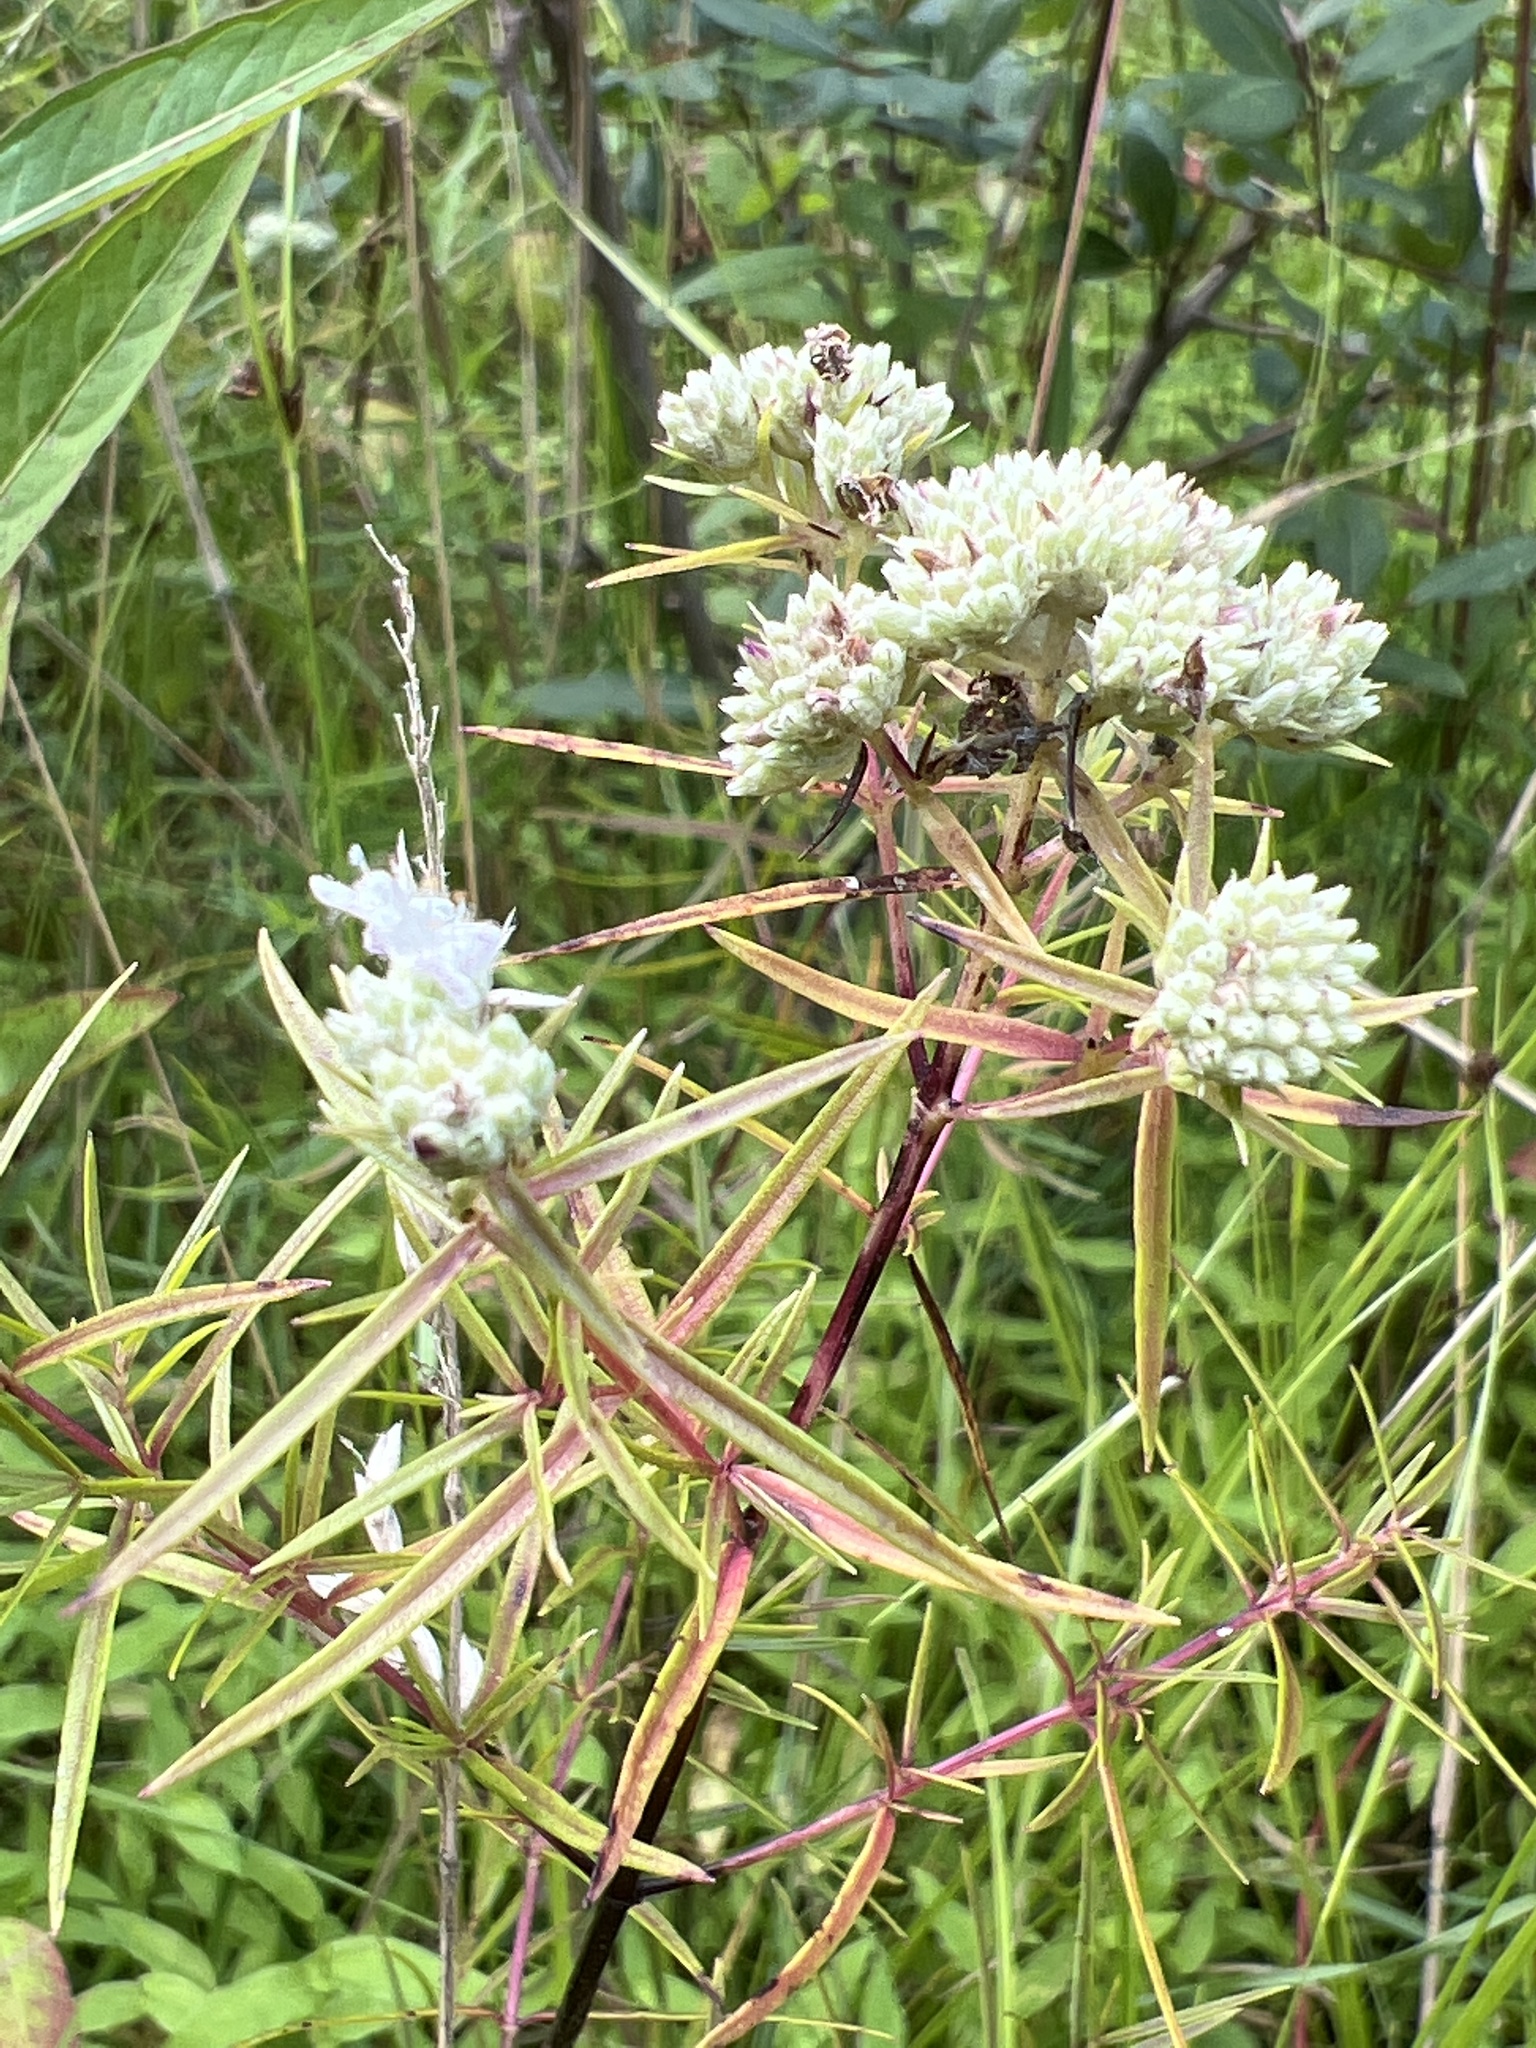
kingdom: Plantae
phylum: Tracheophyta
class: Magnoliopsida
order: Lamiales
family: Lamiaceae
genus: Pycnanthemum
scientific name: Pycnanthemum virginianum
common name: Virginia mountain-mint
